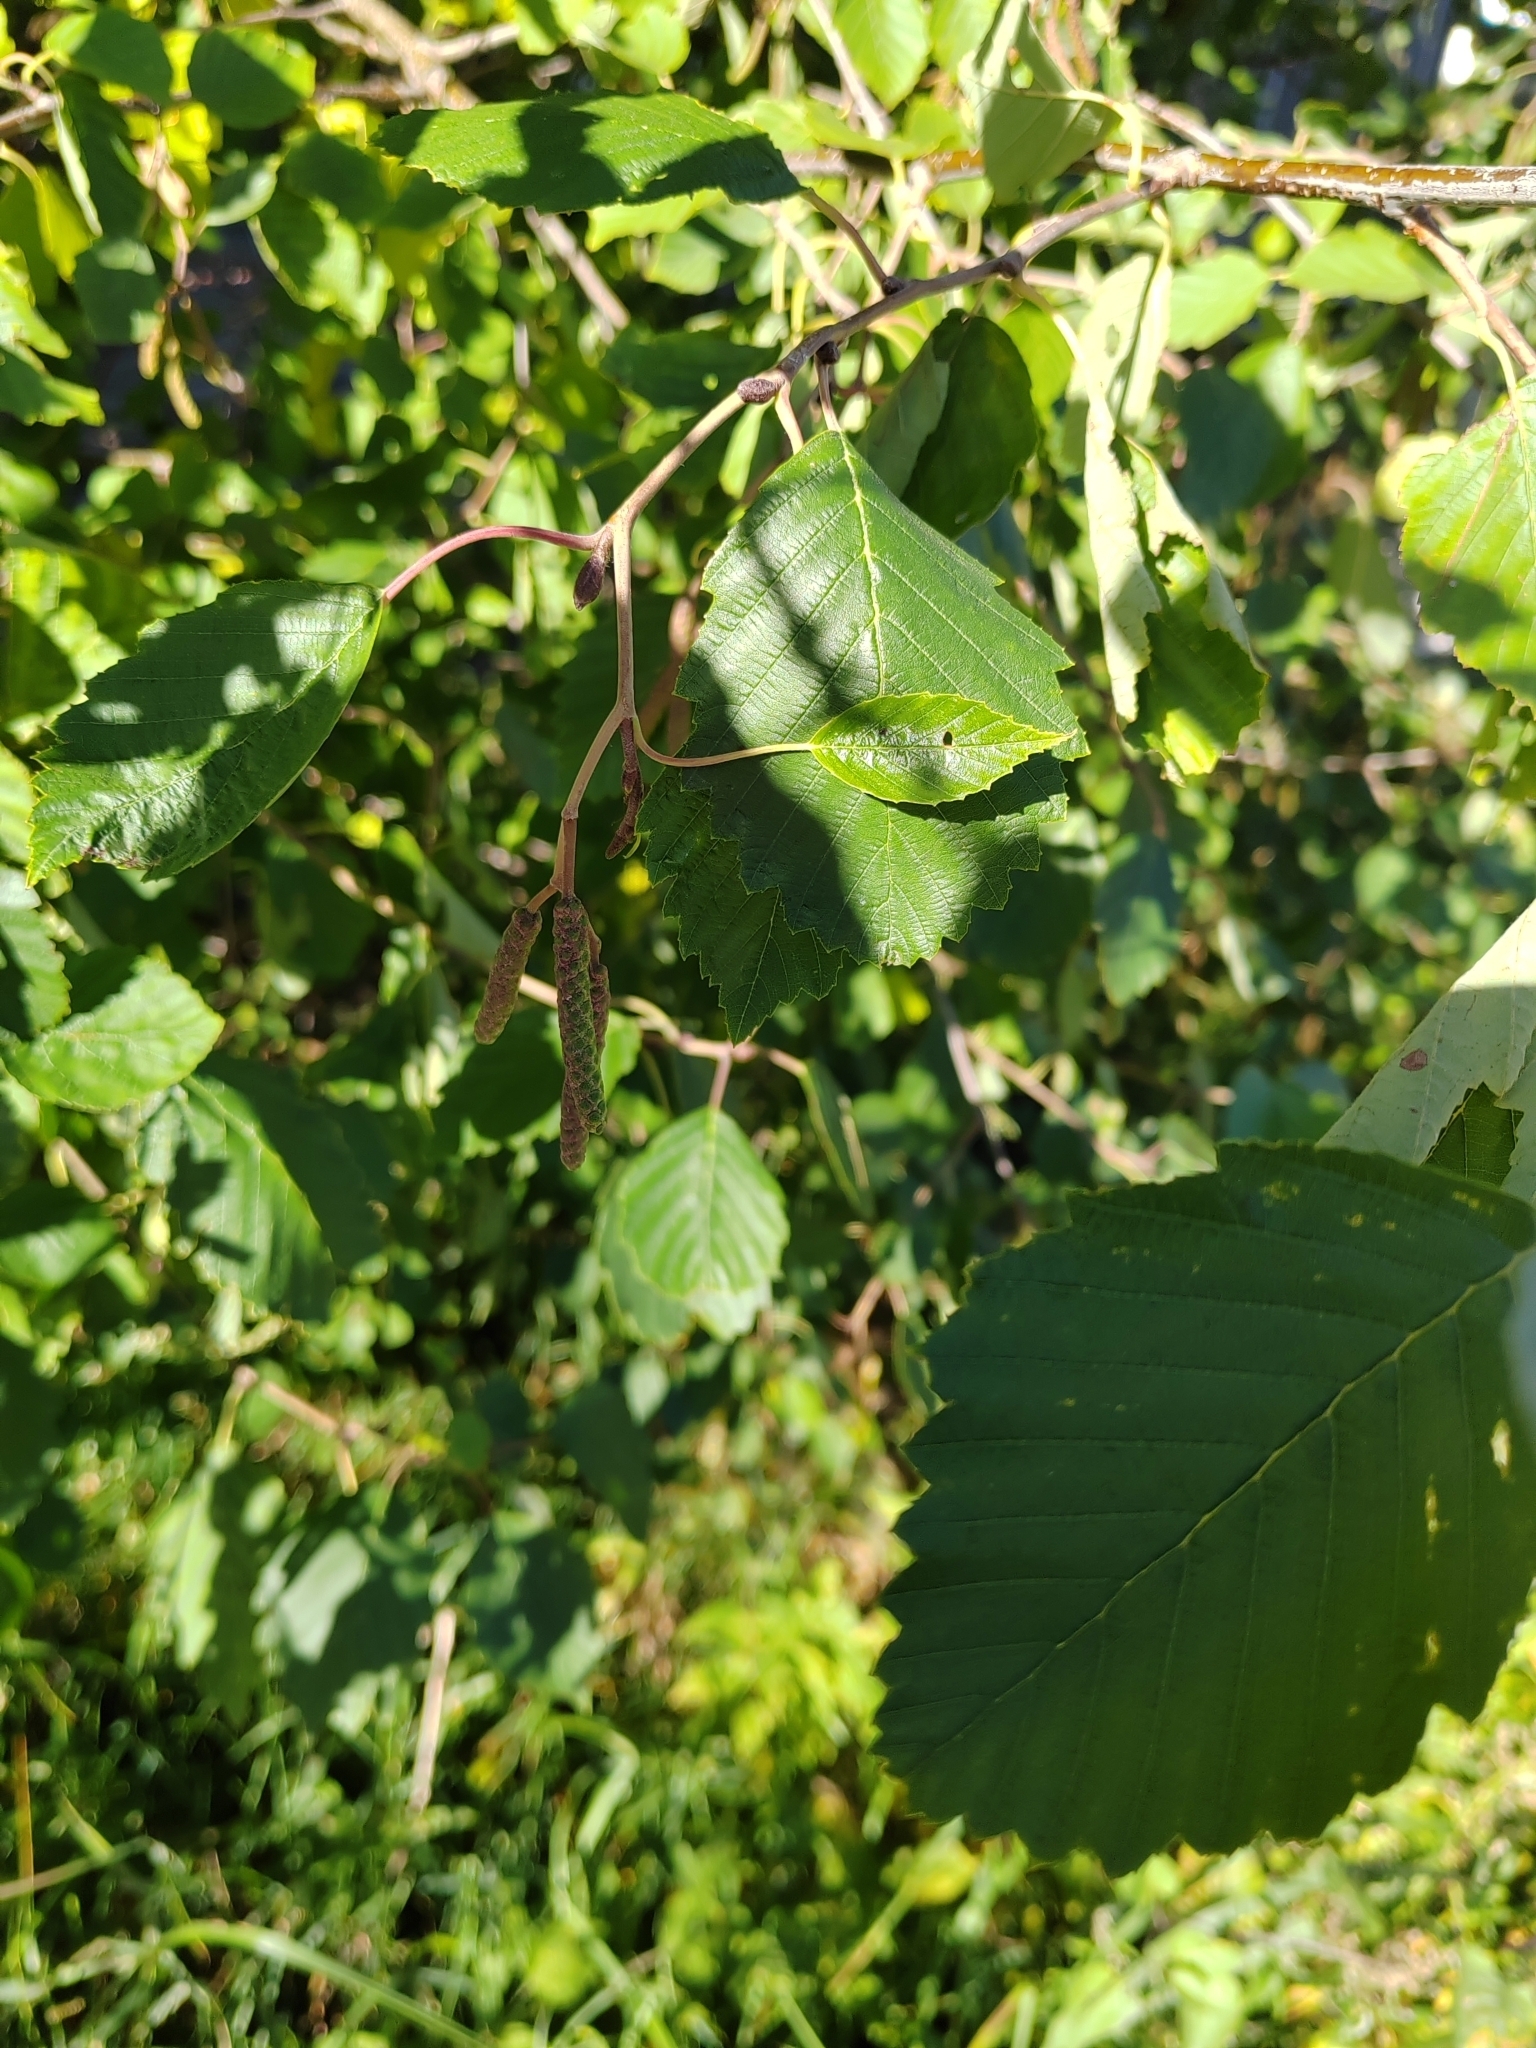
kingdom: Plantae
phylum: Tracheophyta
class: Magnoliopsida
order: Fagales
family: Betulaceae
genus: Alnus
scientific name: Alnus incana
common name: Grey alder
